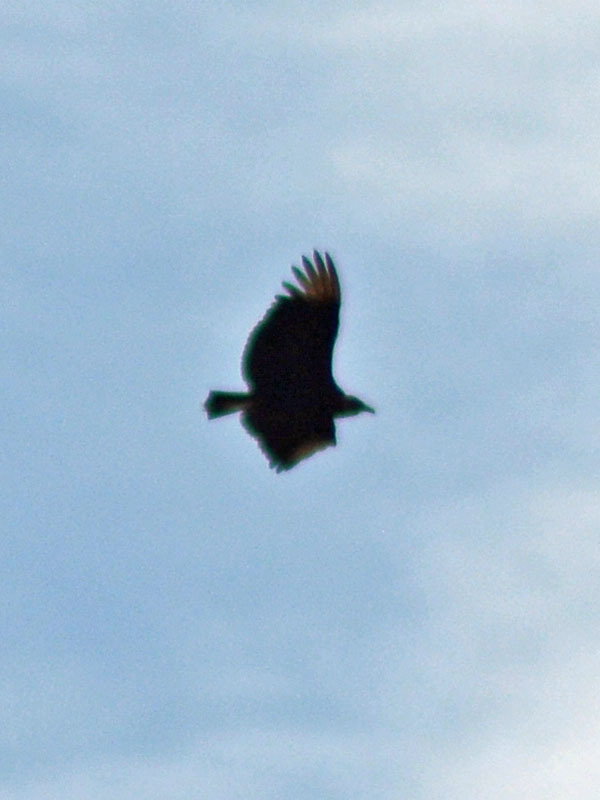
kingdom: Animalia
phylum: Chordata
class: Aves
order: Accipitriformes
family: Cathartidae
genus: Coragyps
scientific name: Coragyps atratus
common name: Black vulture
